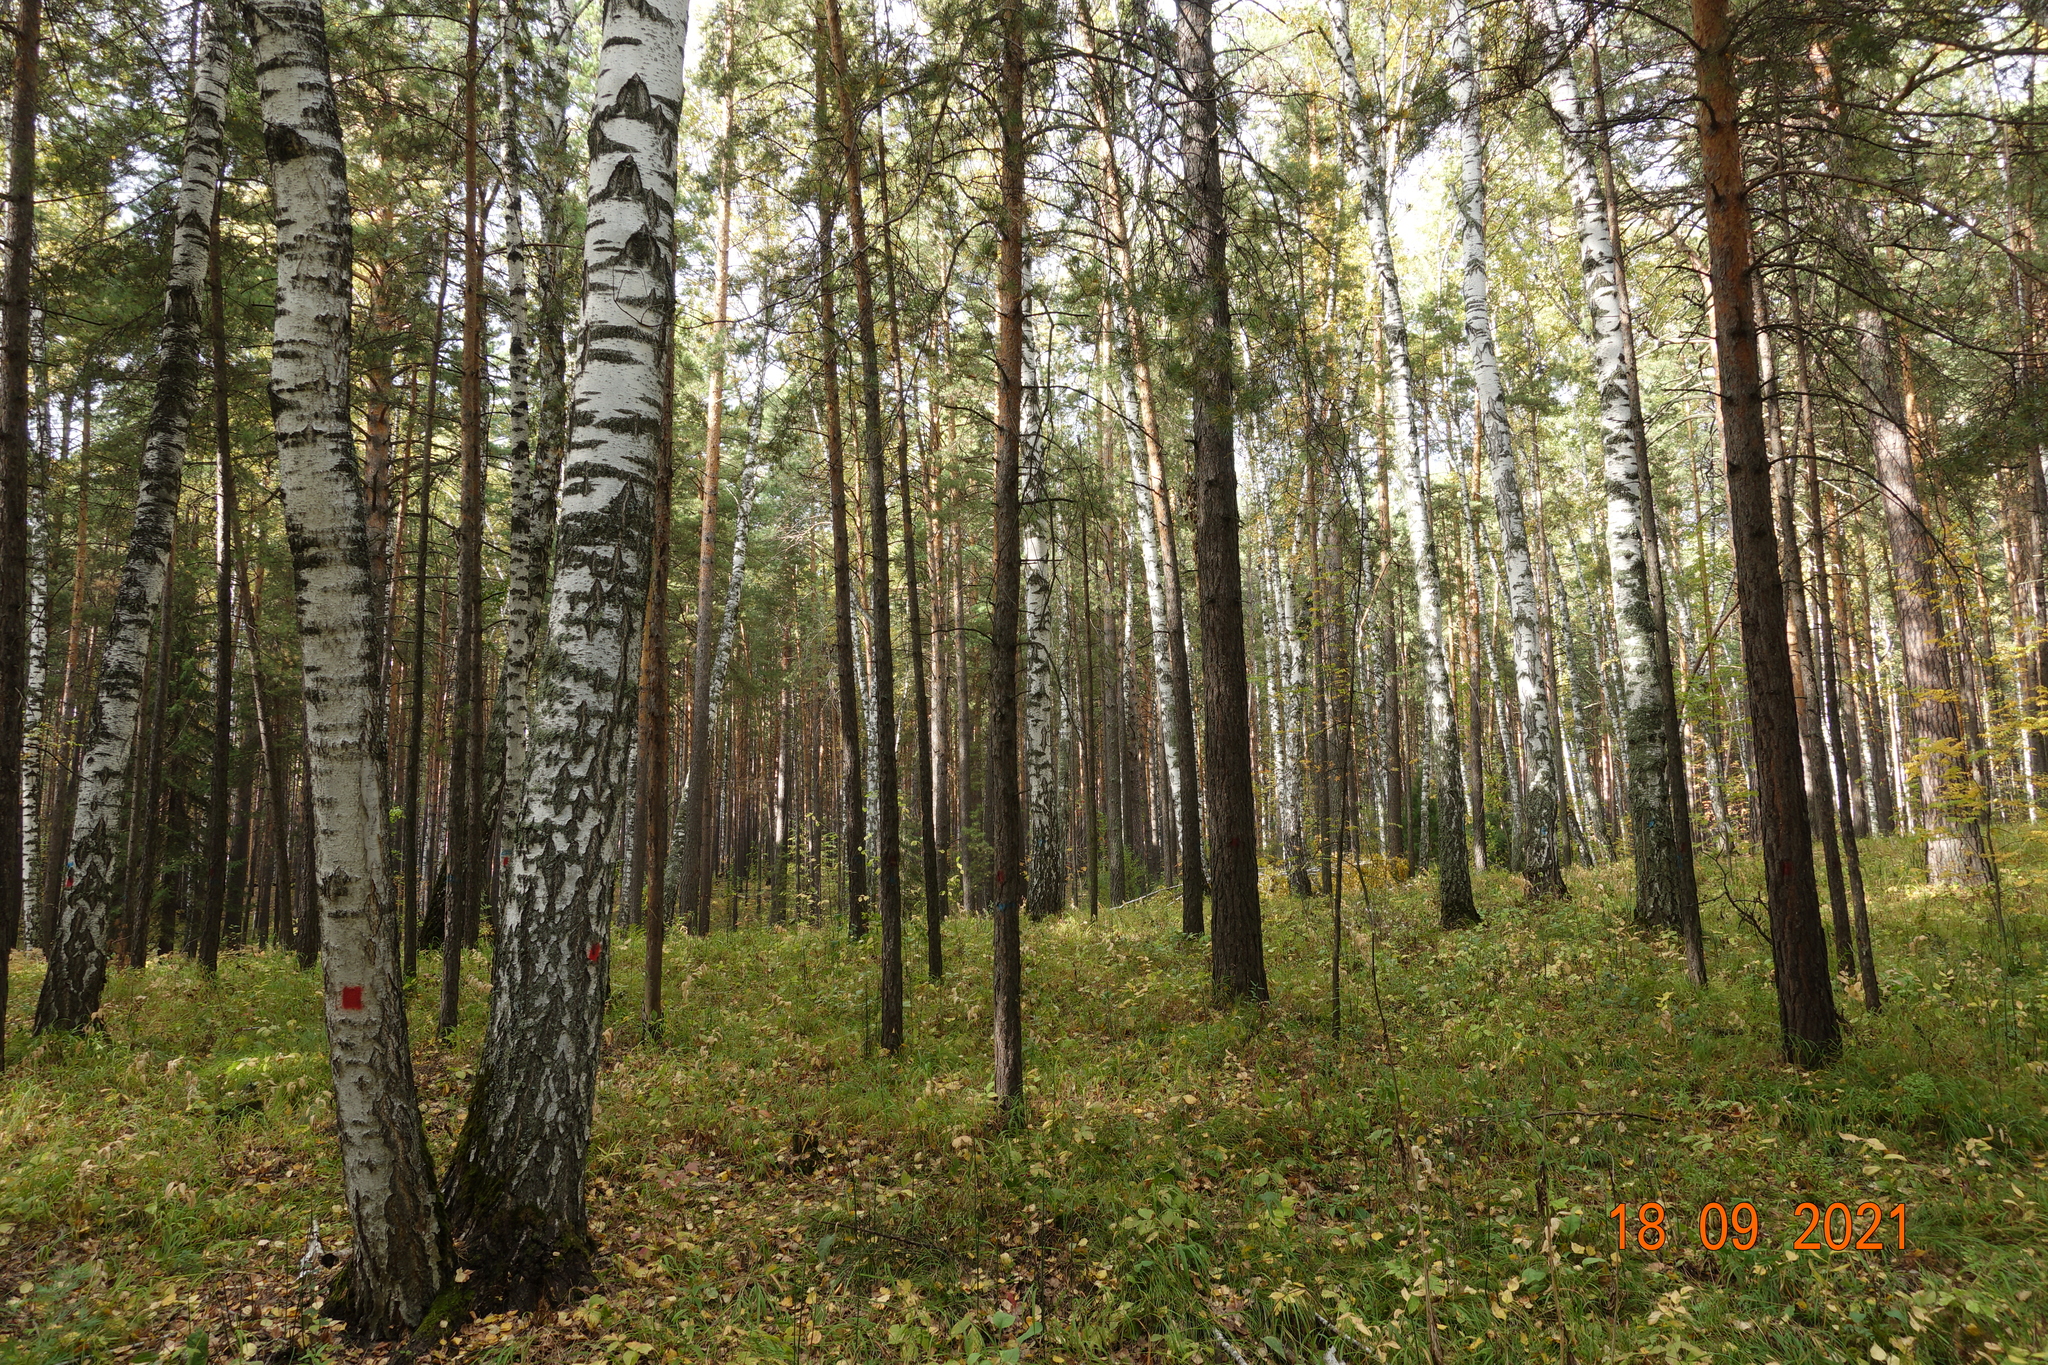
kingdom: Plantae
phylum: Tracheophyta
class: Magnoliopsida
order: Fagales
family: Betulaceae
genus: Betula
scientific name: Betula pendula
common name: Silver birch
